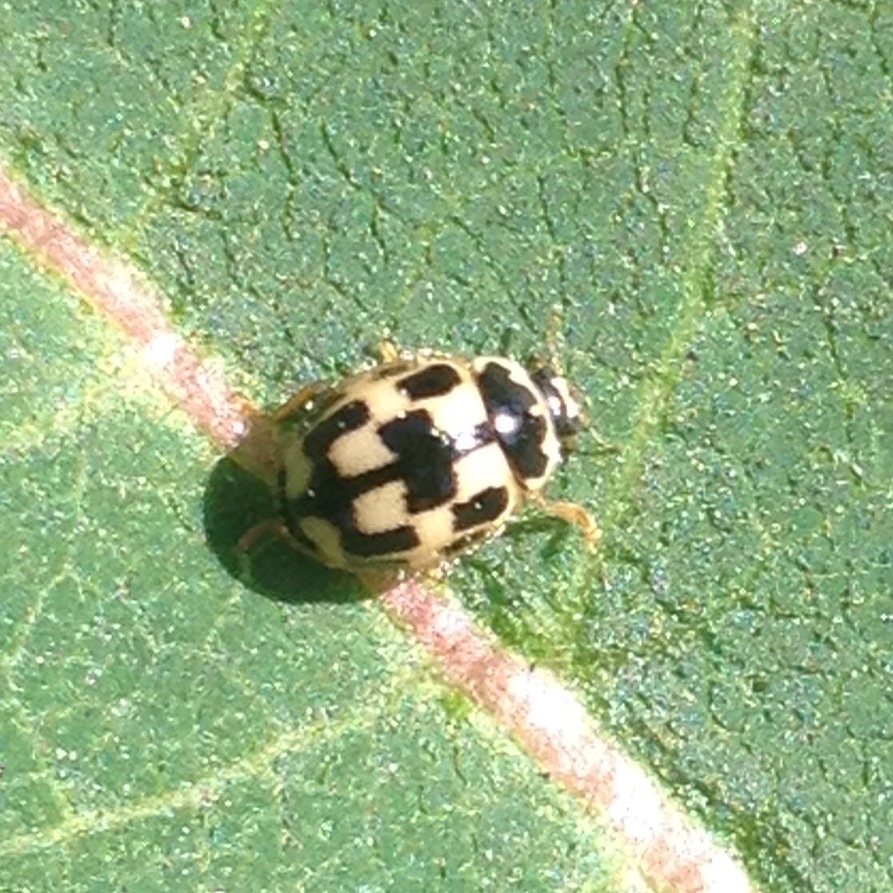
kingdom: Animalia
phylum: Arthropoda
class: Insecta
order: Coleoptera
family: Coccinellidae
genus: Propylaea
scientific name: Propylaea quatuordecimpunctata
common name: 14-spotted ladybird beetle
